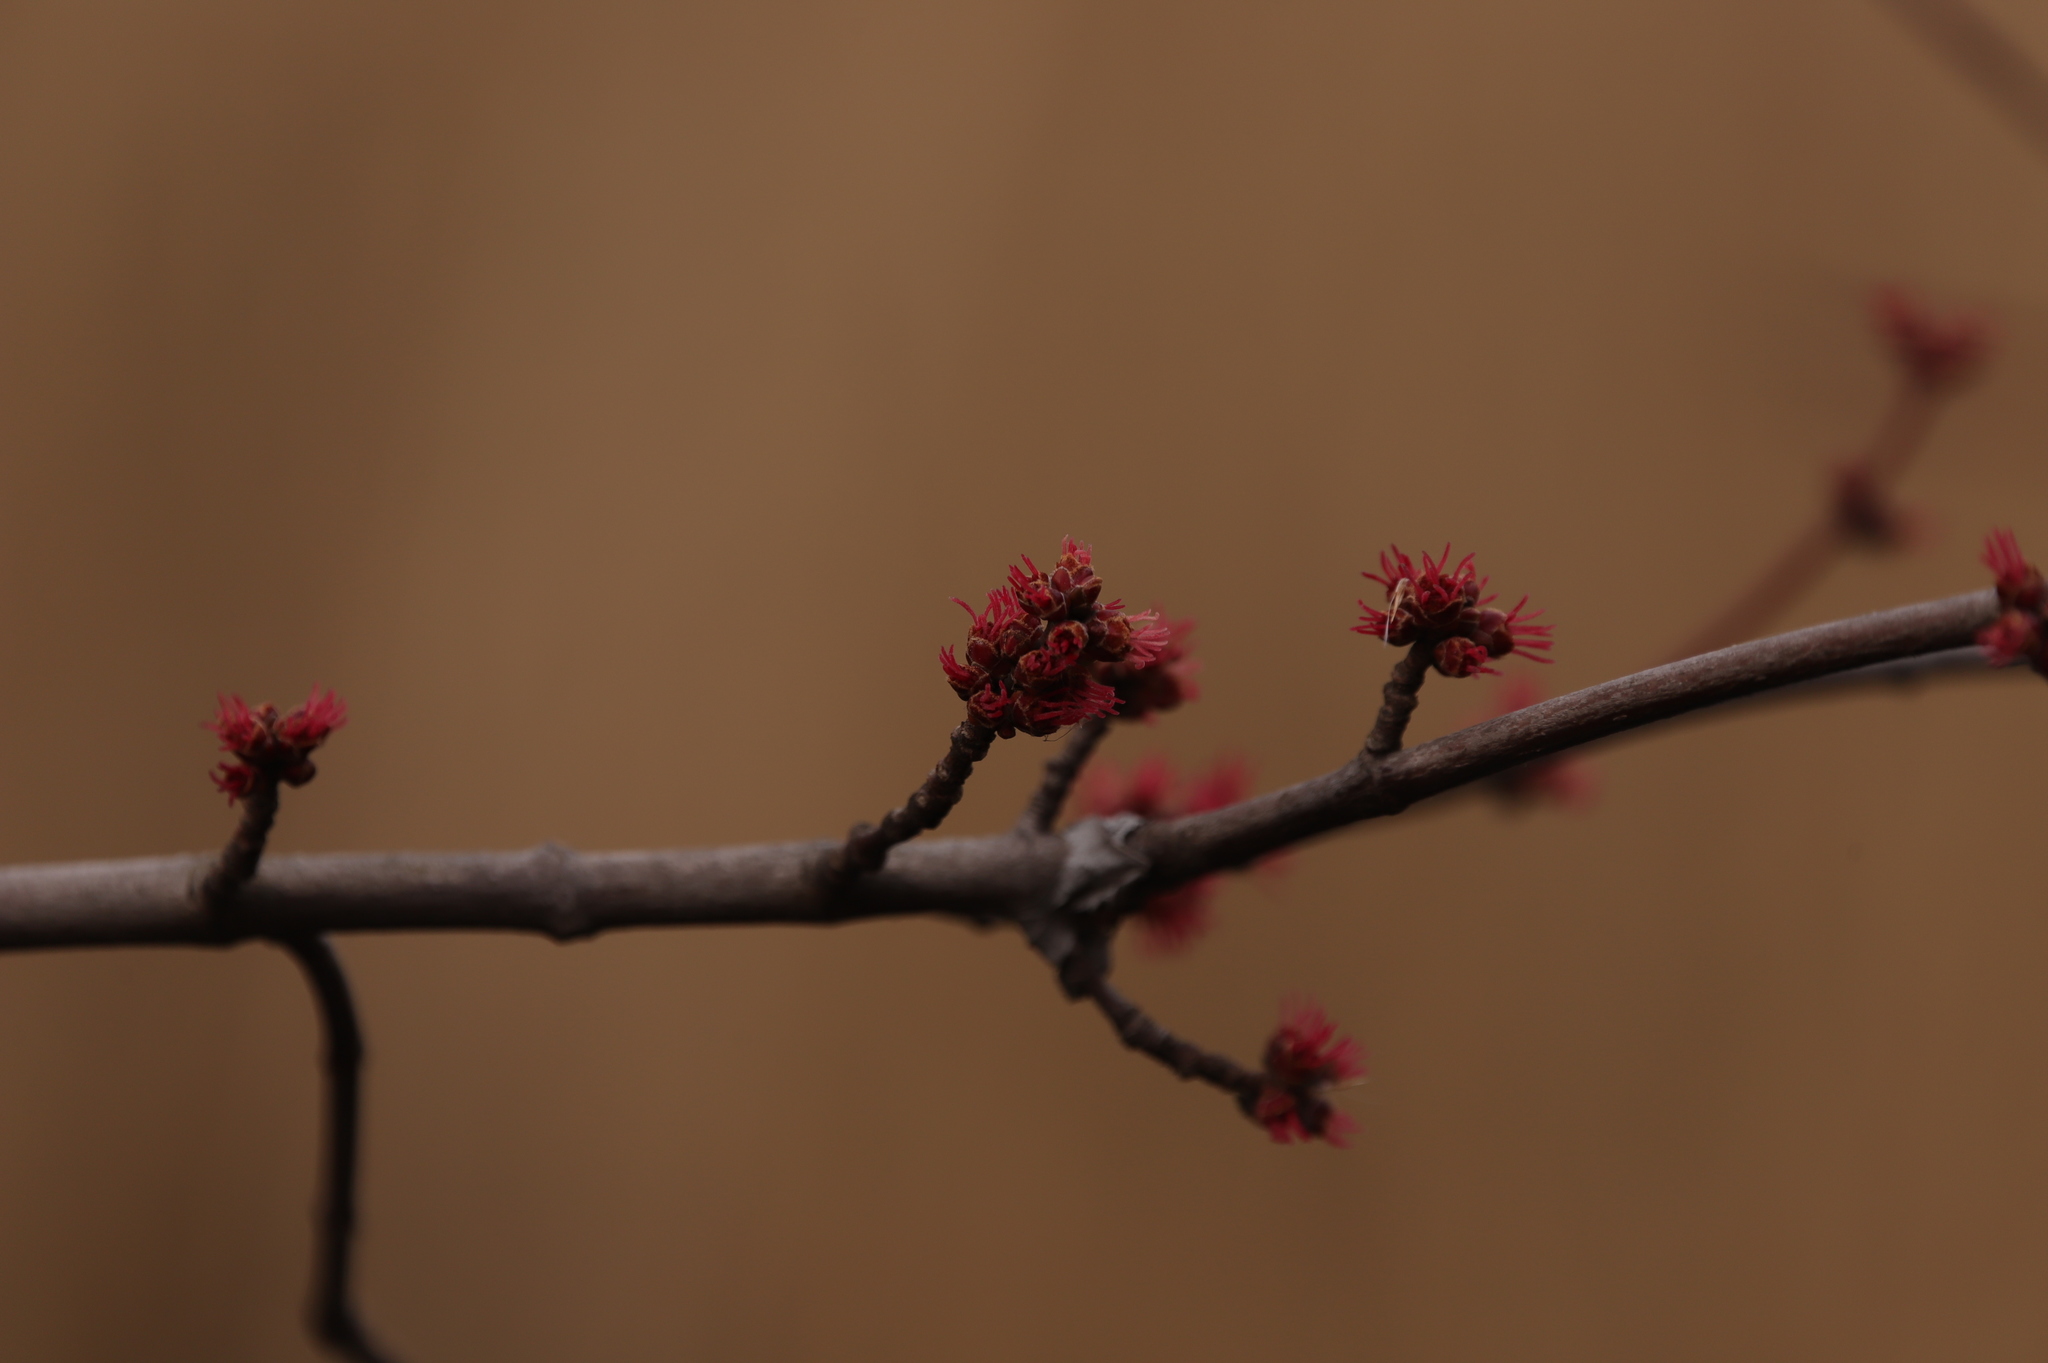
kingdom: Plantae
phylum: Tracheophyta
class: Magnoliopsida
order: Sapindales
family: Sapindaceae
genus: Acer
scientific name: Acer rubrum
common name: Red maple
